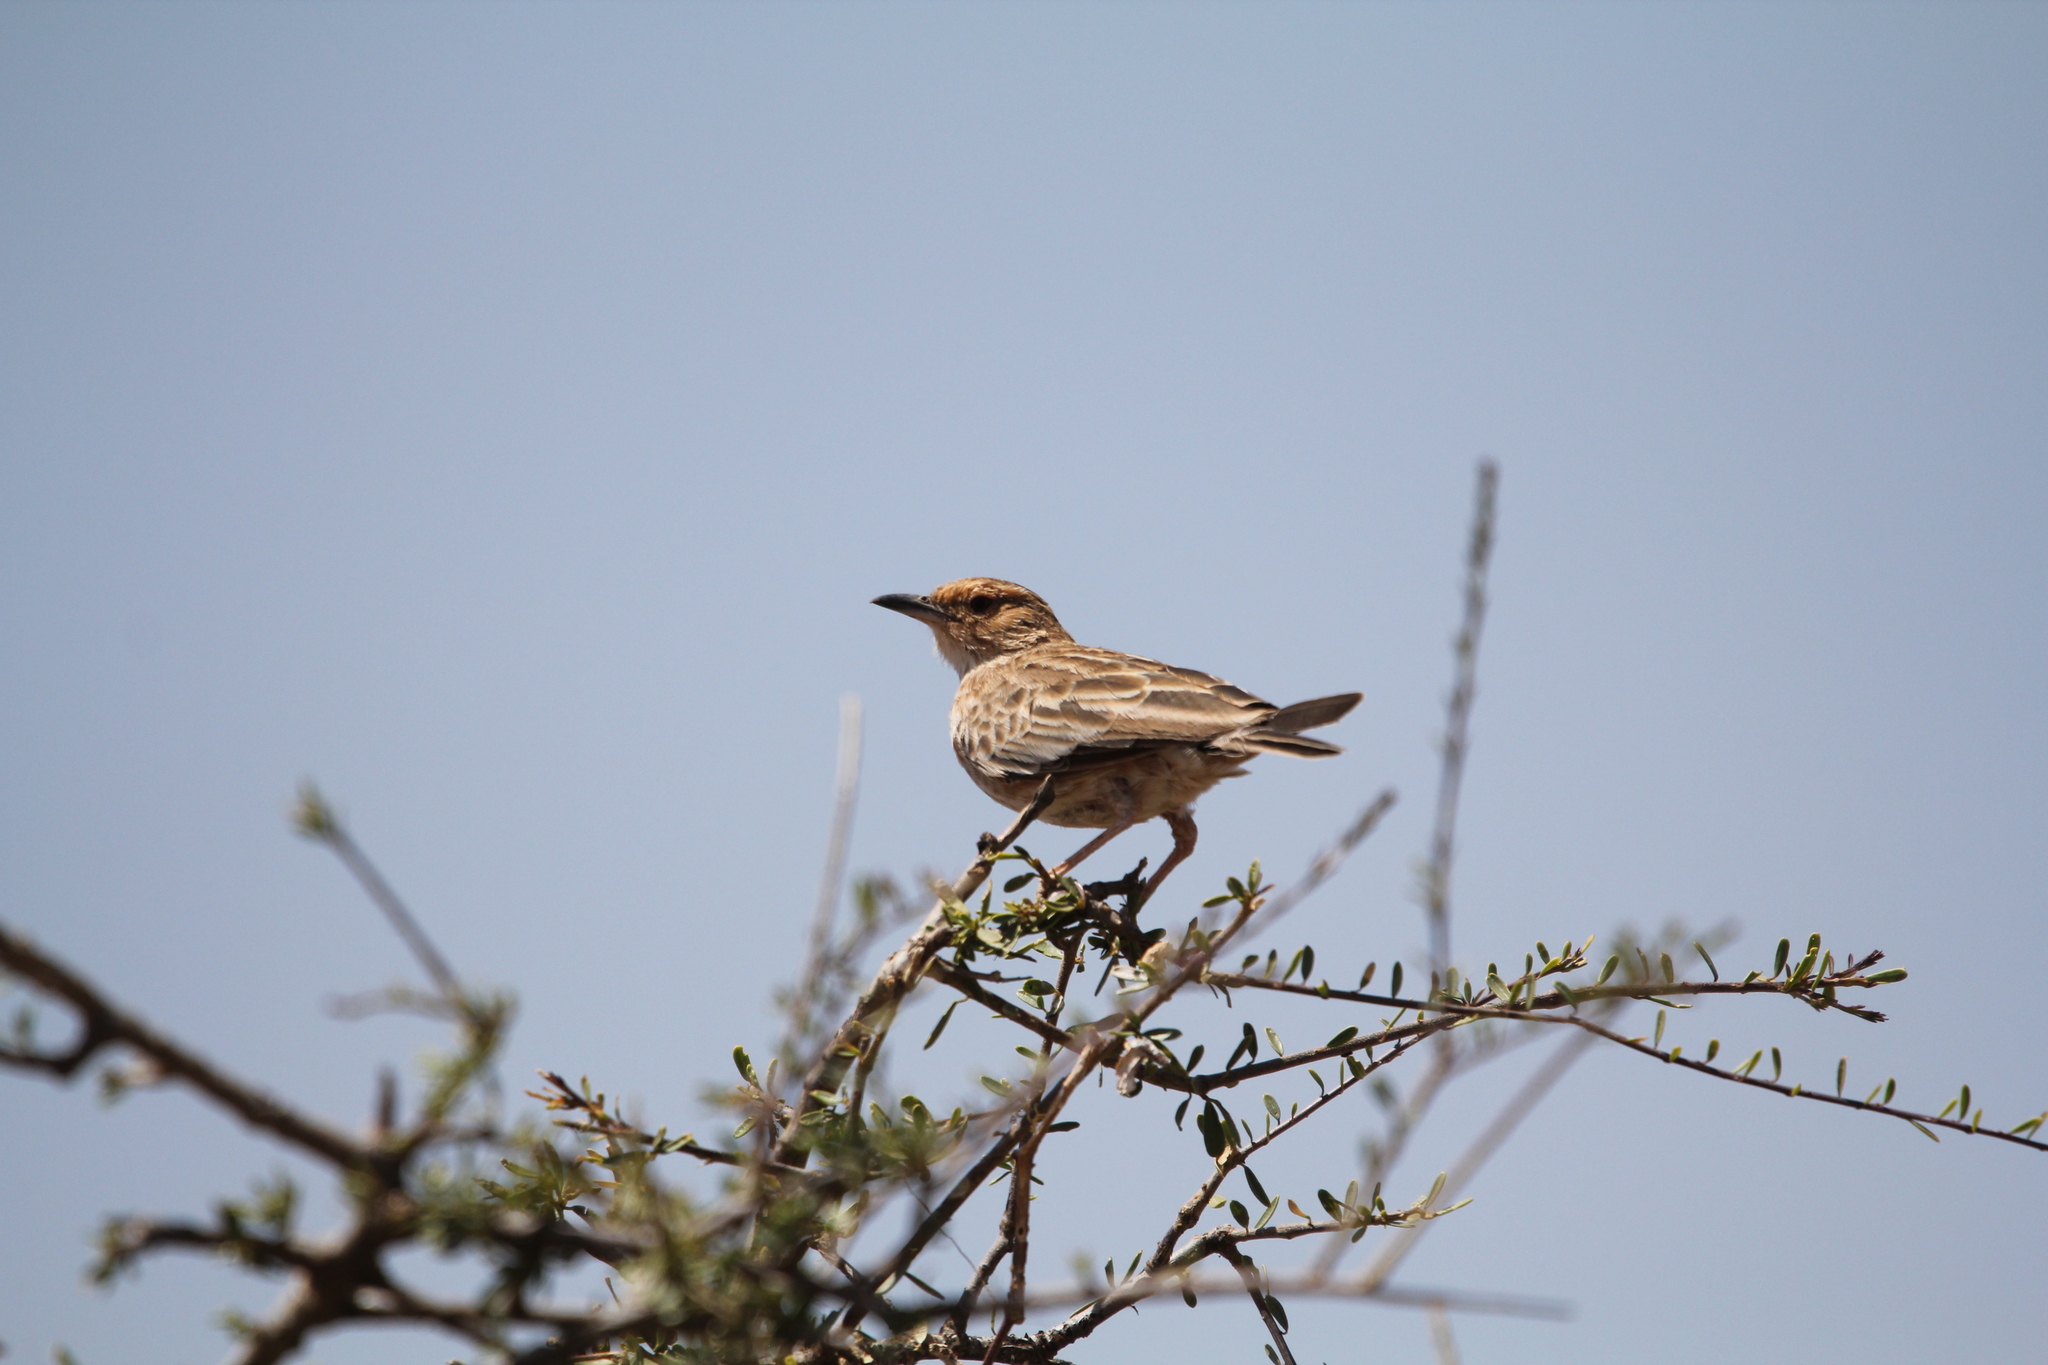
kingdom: Animalia
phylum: Chordata
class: Aves
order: Passeriformes
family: Alaudidae
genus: Calendulauda
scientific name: Calendulauda poecilosterna
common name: Pink-breasted lark
